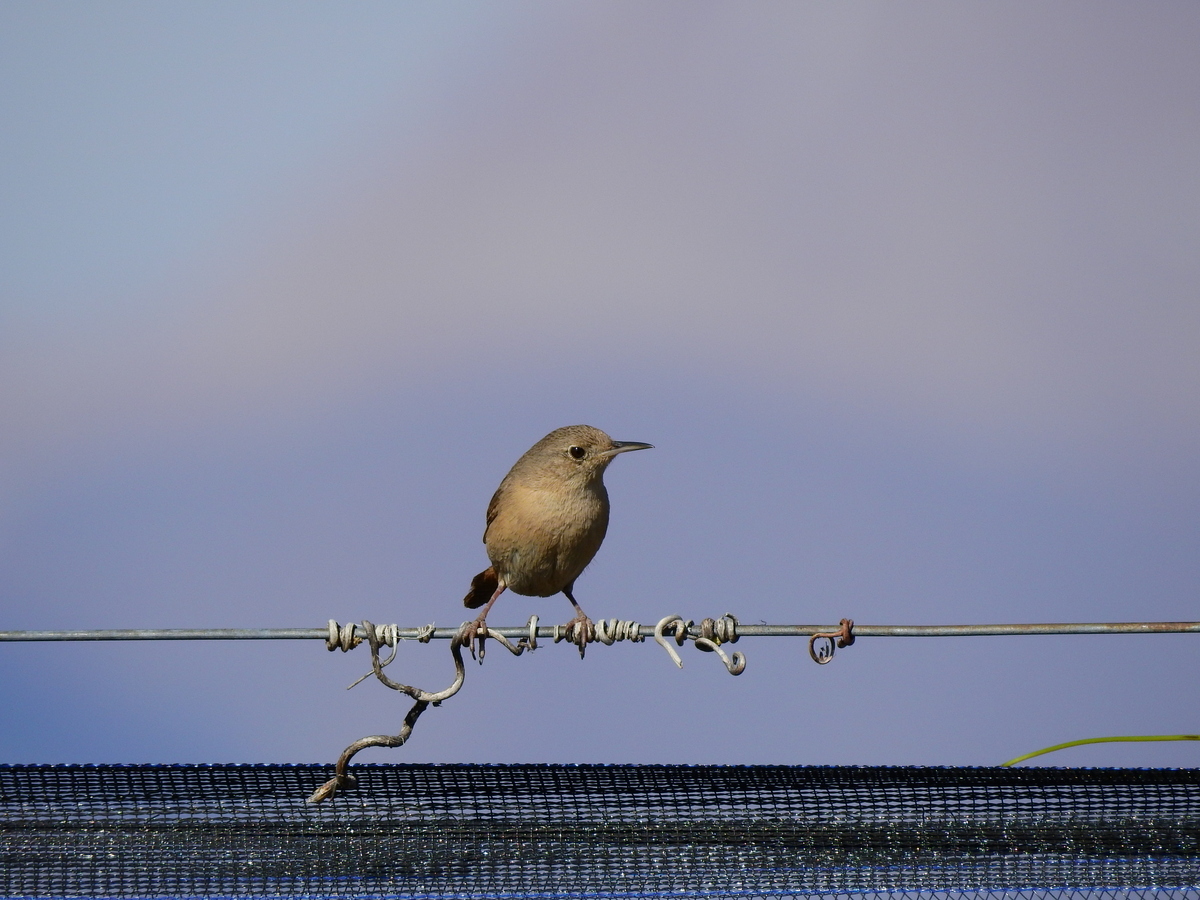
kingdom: Animalia
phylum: Chordata
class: Aves
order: Passeriformes
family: Troglodytidae
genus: Troglodytes
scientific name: Troglodytes aedon
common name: House wren
